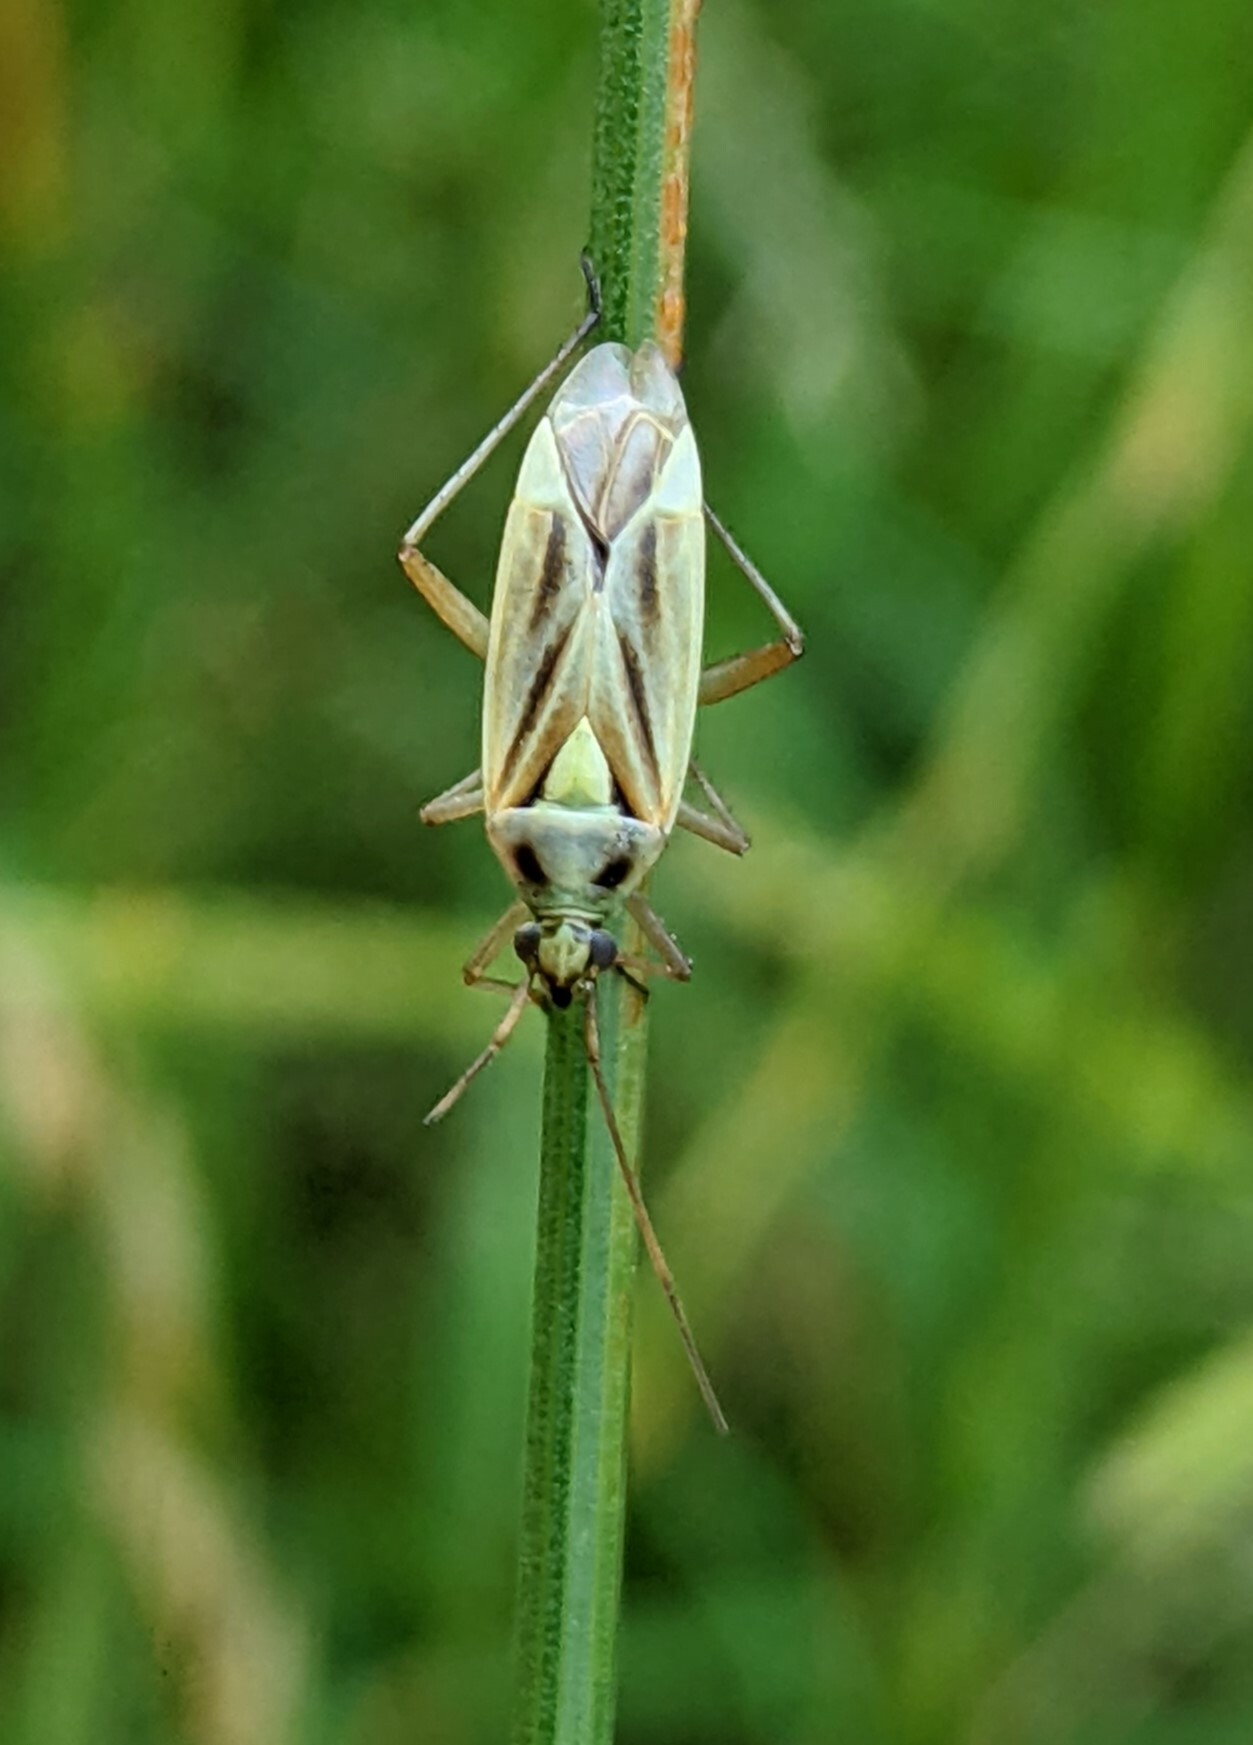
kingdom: Animalia
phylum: Arthropoda
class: Insecta
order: Hemiptera
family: Miridae
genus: Stenotus
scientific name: Stenotus binotatus
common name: Plant bug
